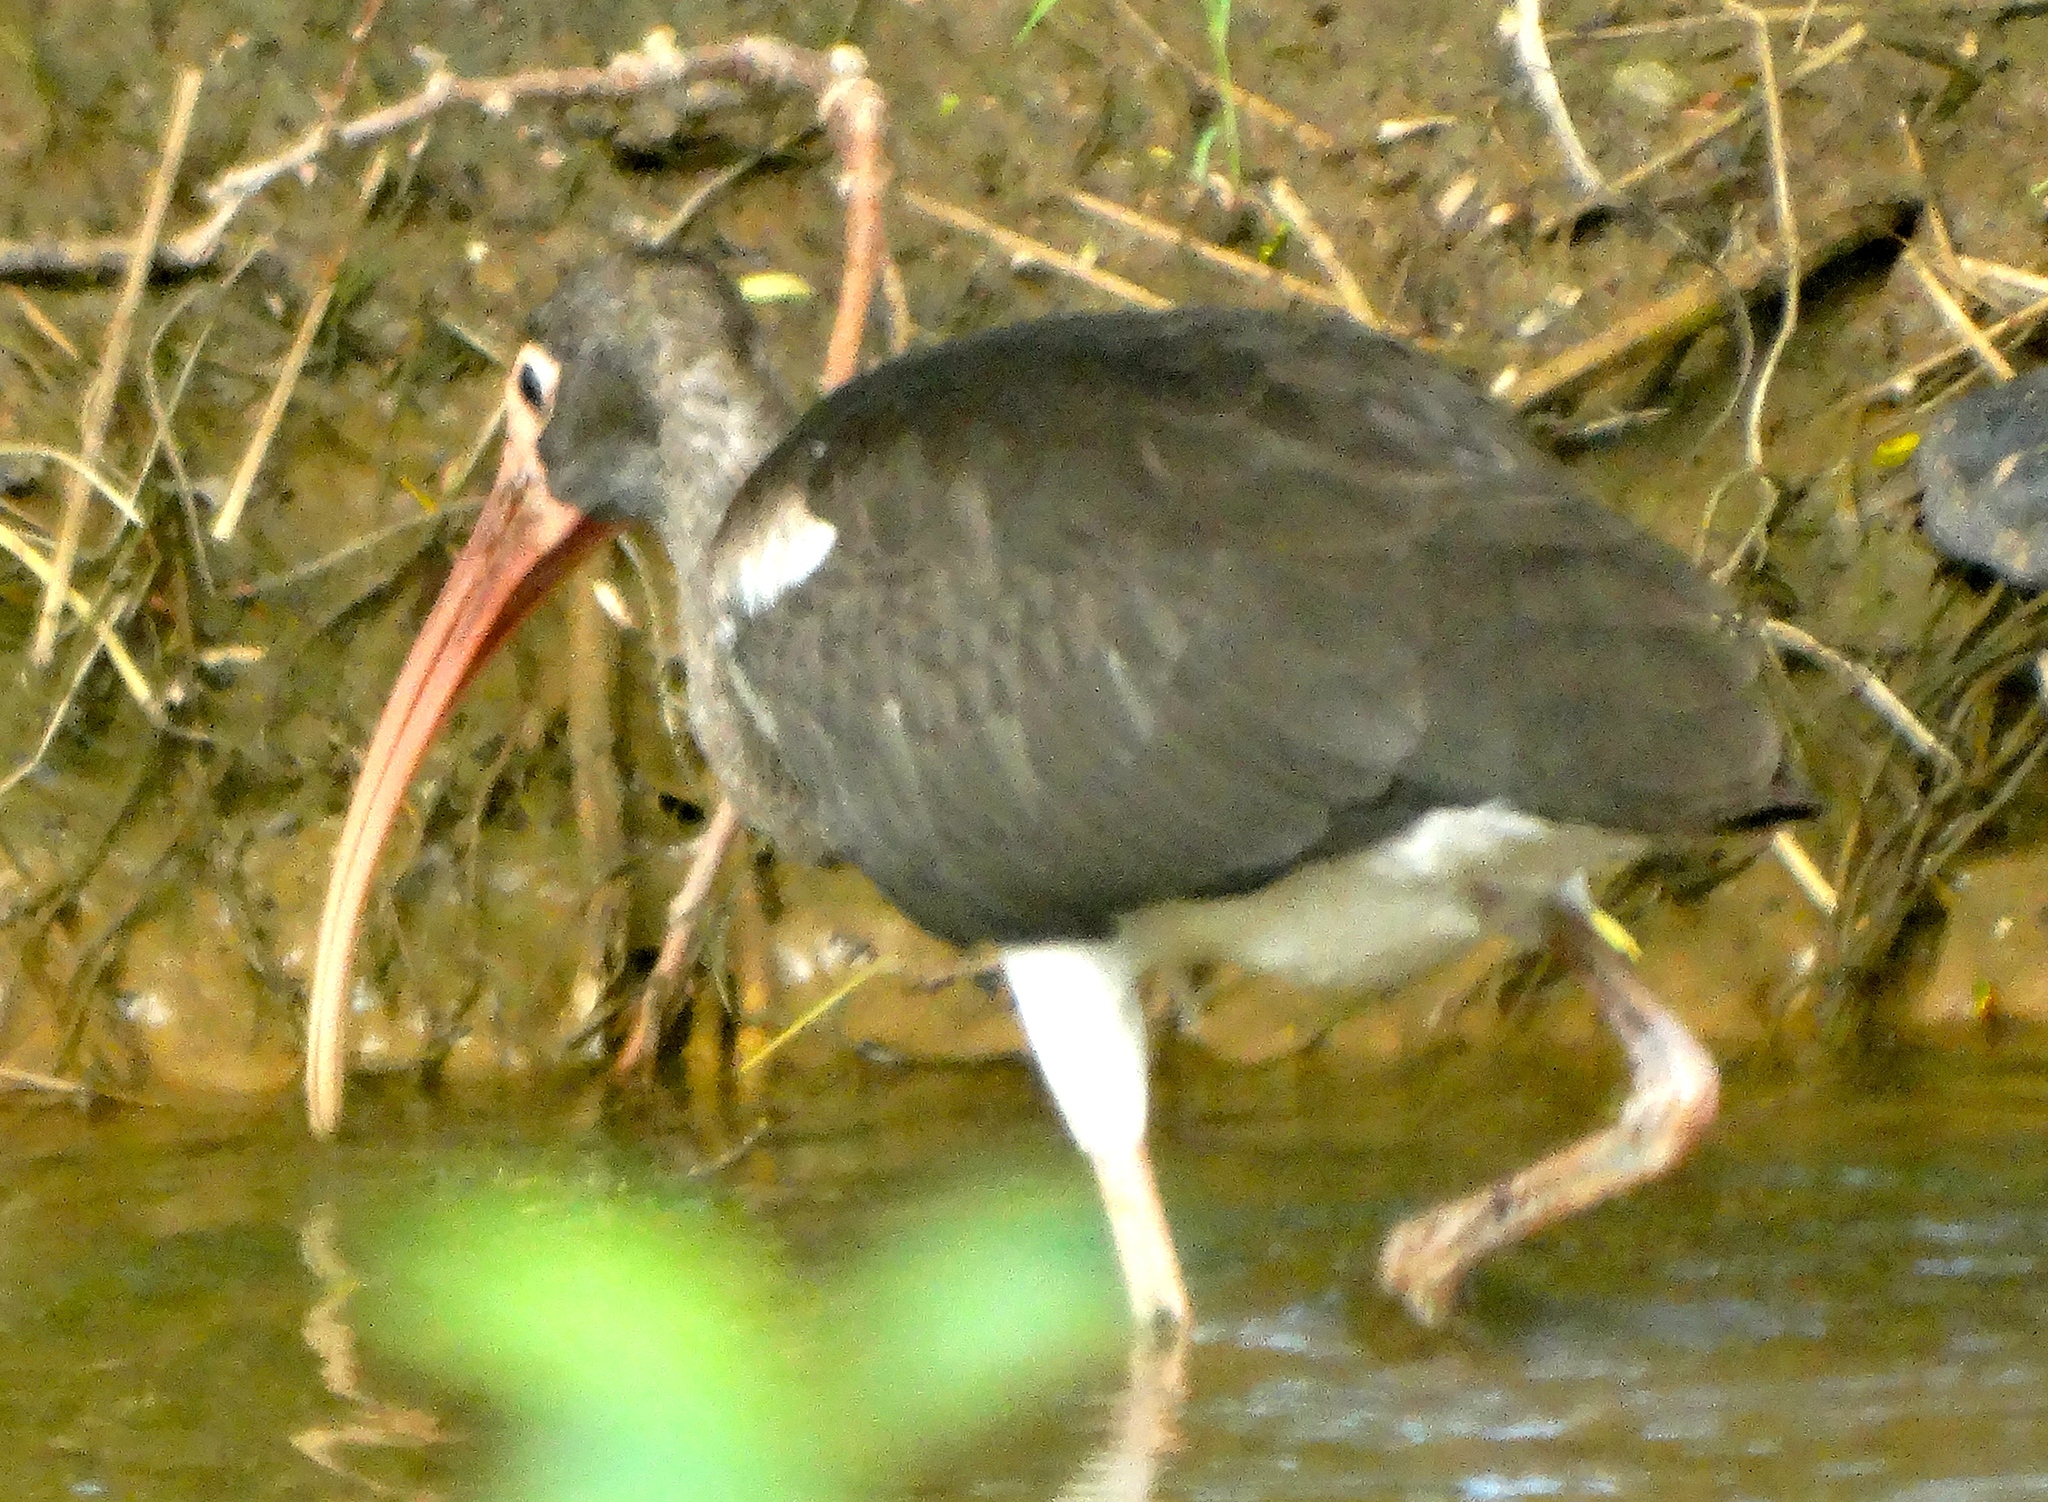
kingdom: Animalia
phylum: Chordata
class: Aves
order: Pelecaniformes
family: Threskiornithidae
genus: Eudocimus
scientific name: Eudocimus albus
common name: White ibis
